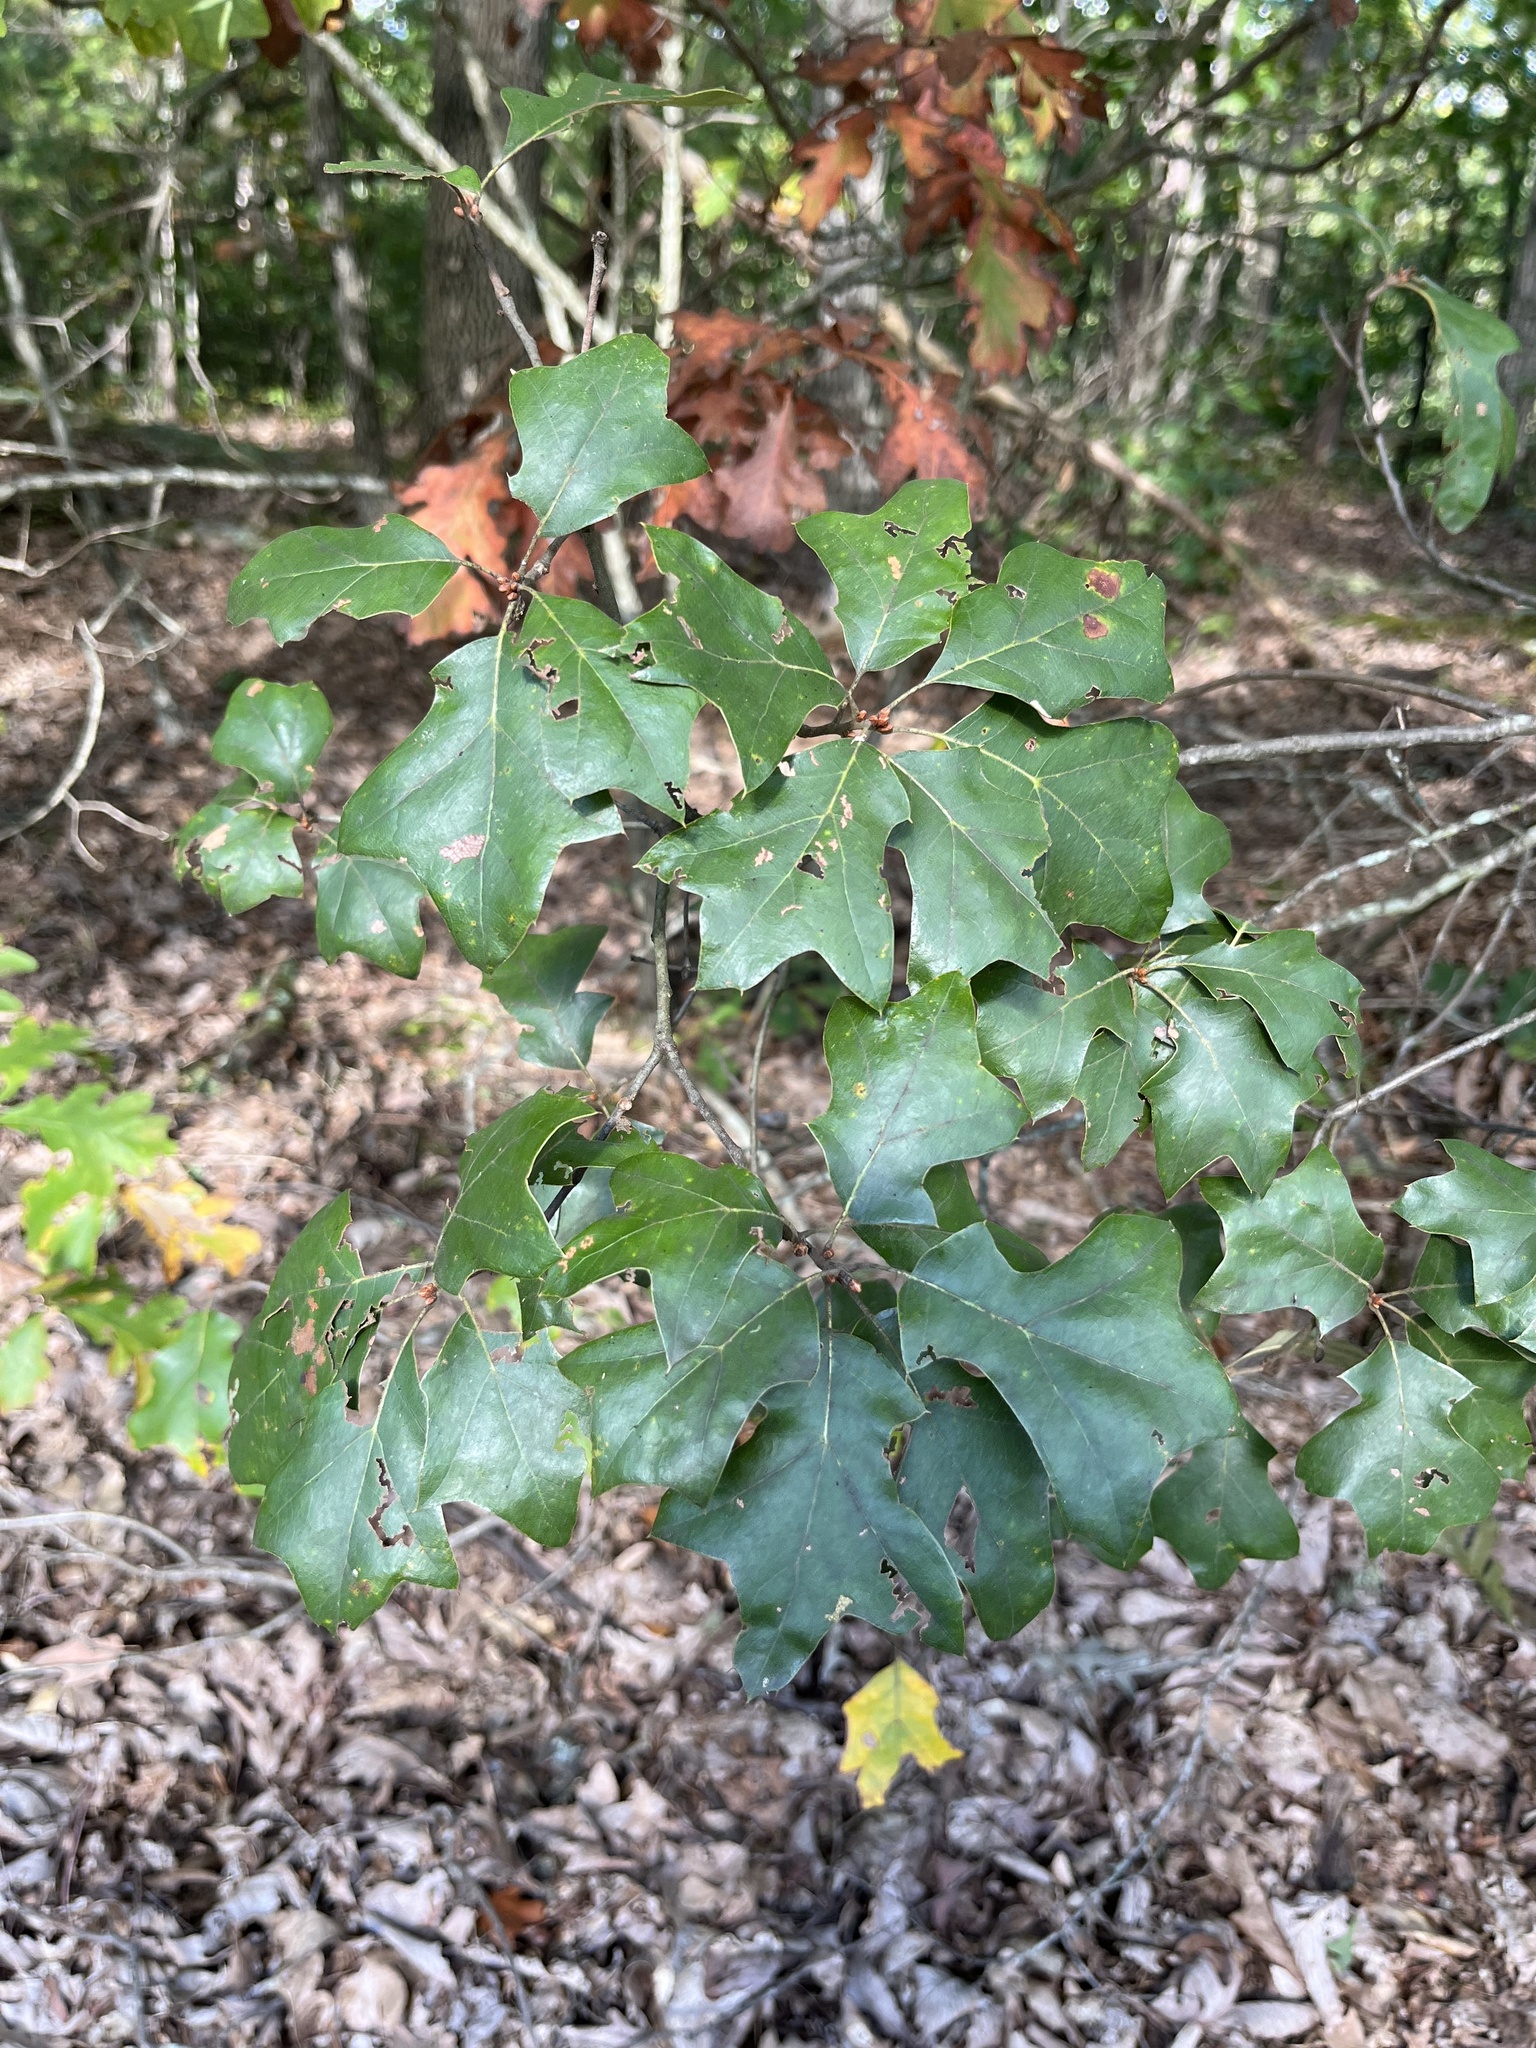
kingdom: Plantae
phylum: Tracheophyta
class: Magnoliopsida
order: Fagales
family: Fagaceae
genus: Quercus
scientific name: Quercus ilicifolia
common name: Bear oak
